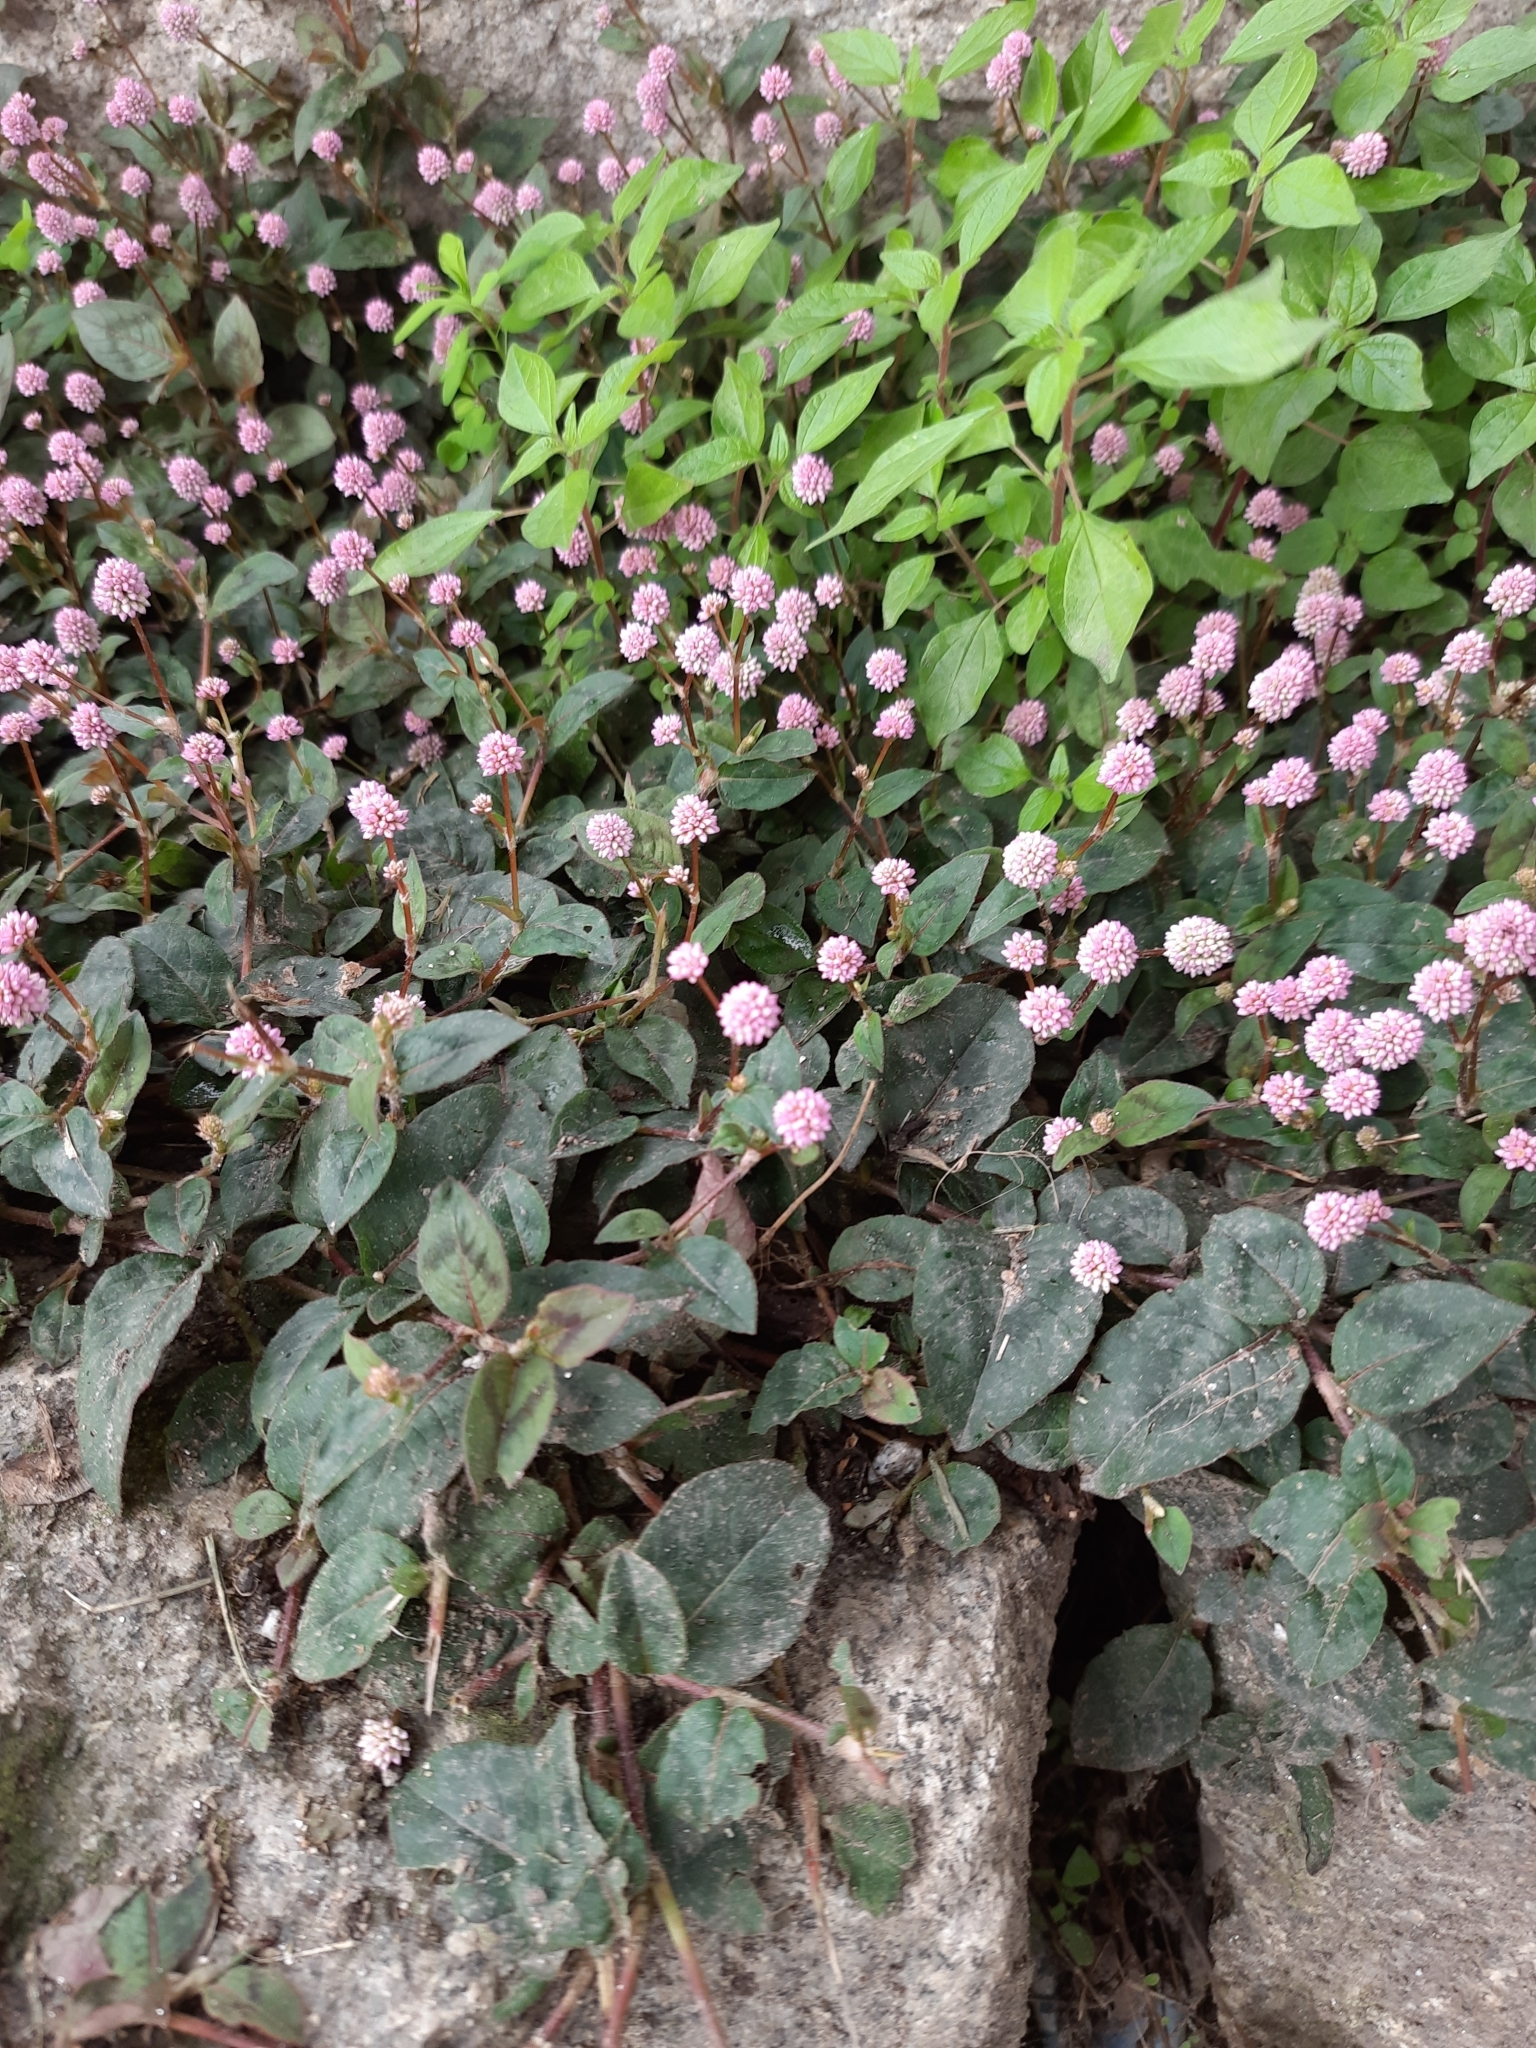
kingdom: Plantae
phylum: Tracheophyta
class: Magnoliopsida
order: Caryophyllales
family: Polygonaceae
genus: Persicaria
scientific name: Persicaria capitata
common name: Pinkhead smartweed
